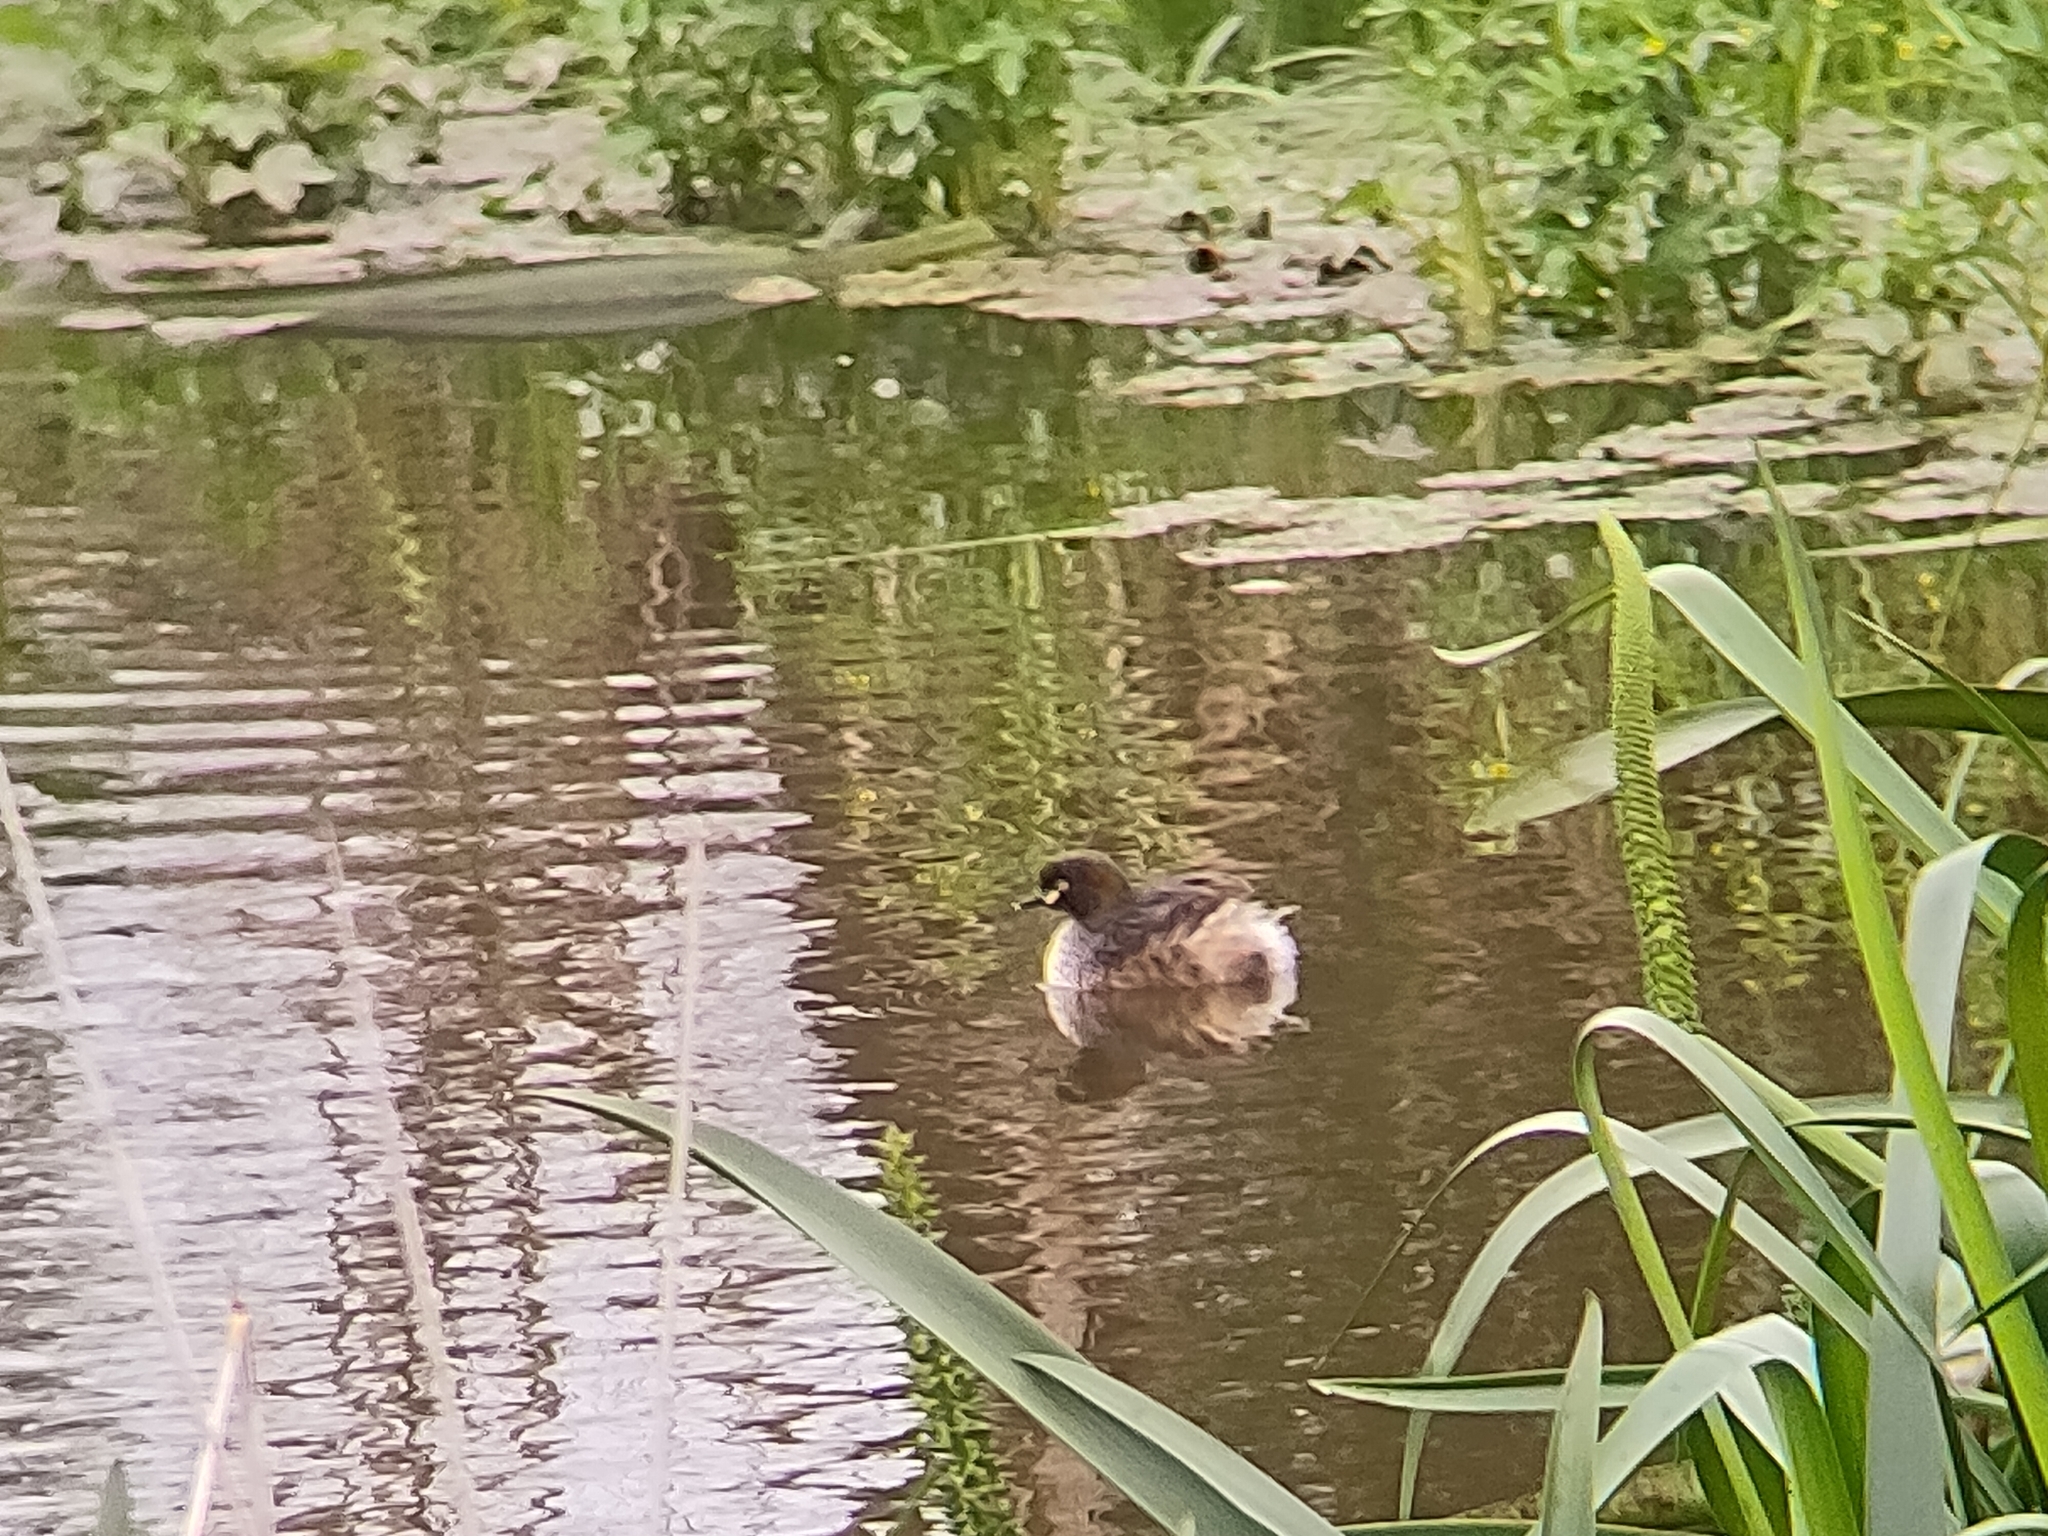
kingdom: Animalia
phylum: Chordata
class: Aves
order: Podicipediformes
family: Podicipedidae
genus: Tachybaptus
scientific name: Tachybaptus novaehollandiae
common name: Australasian grebe
